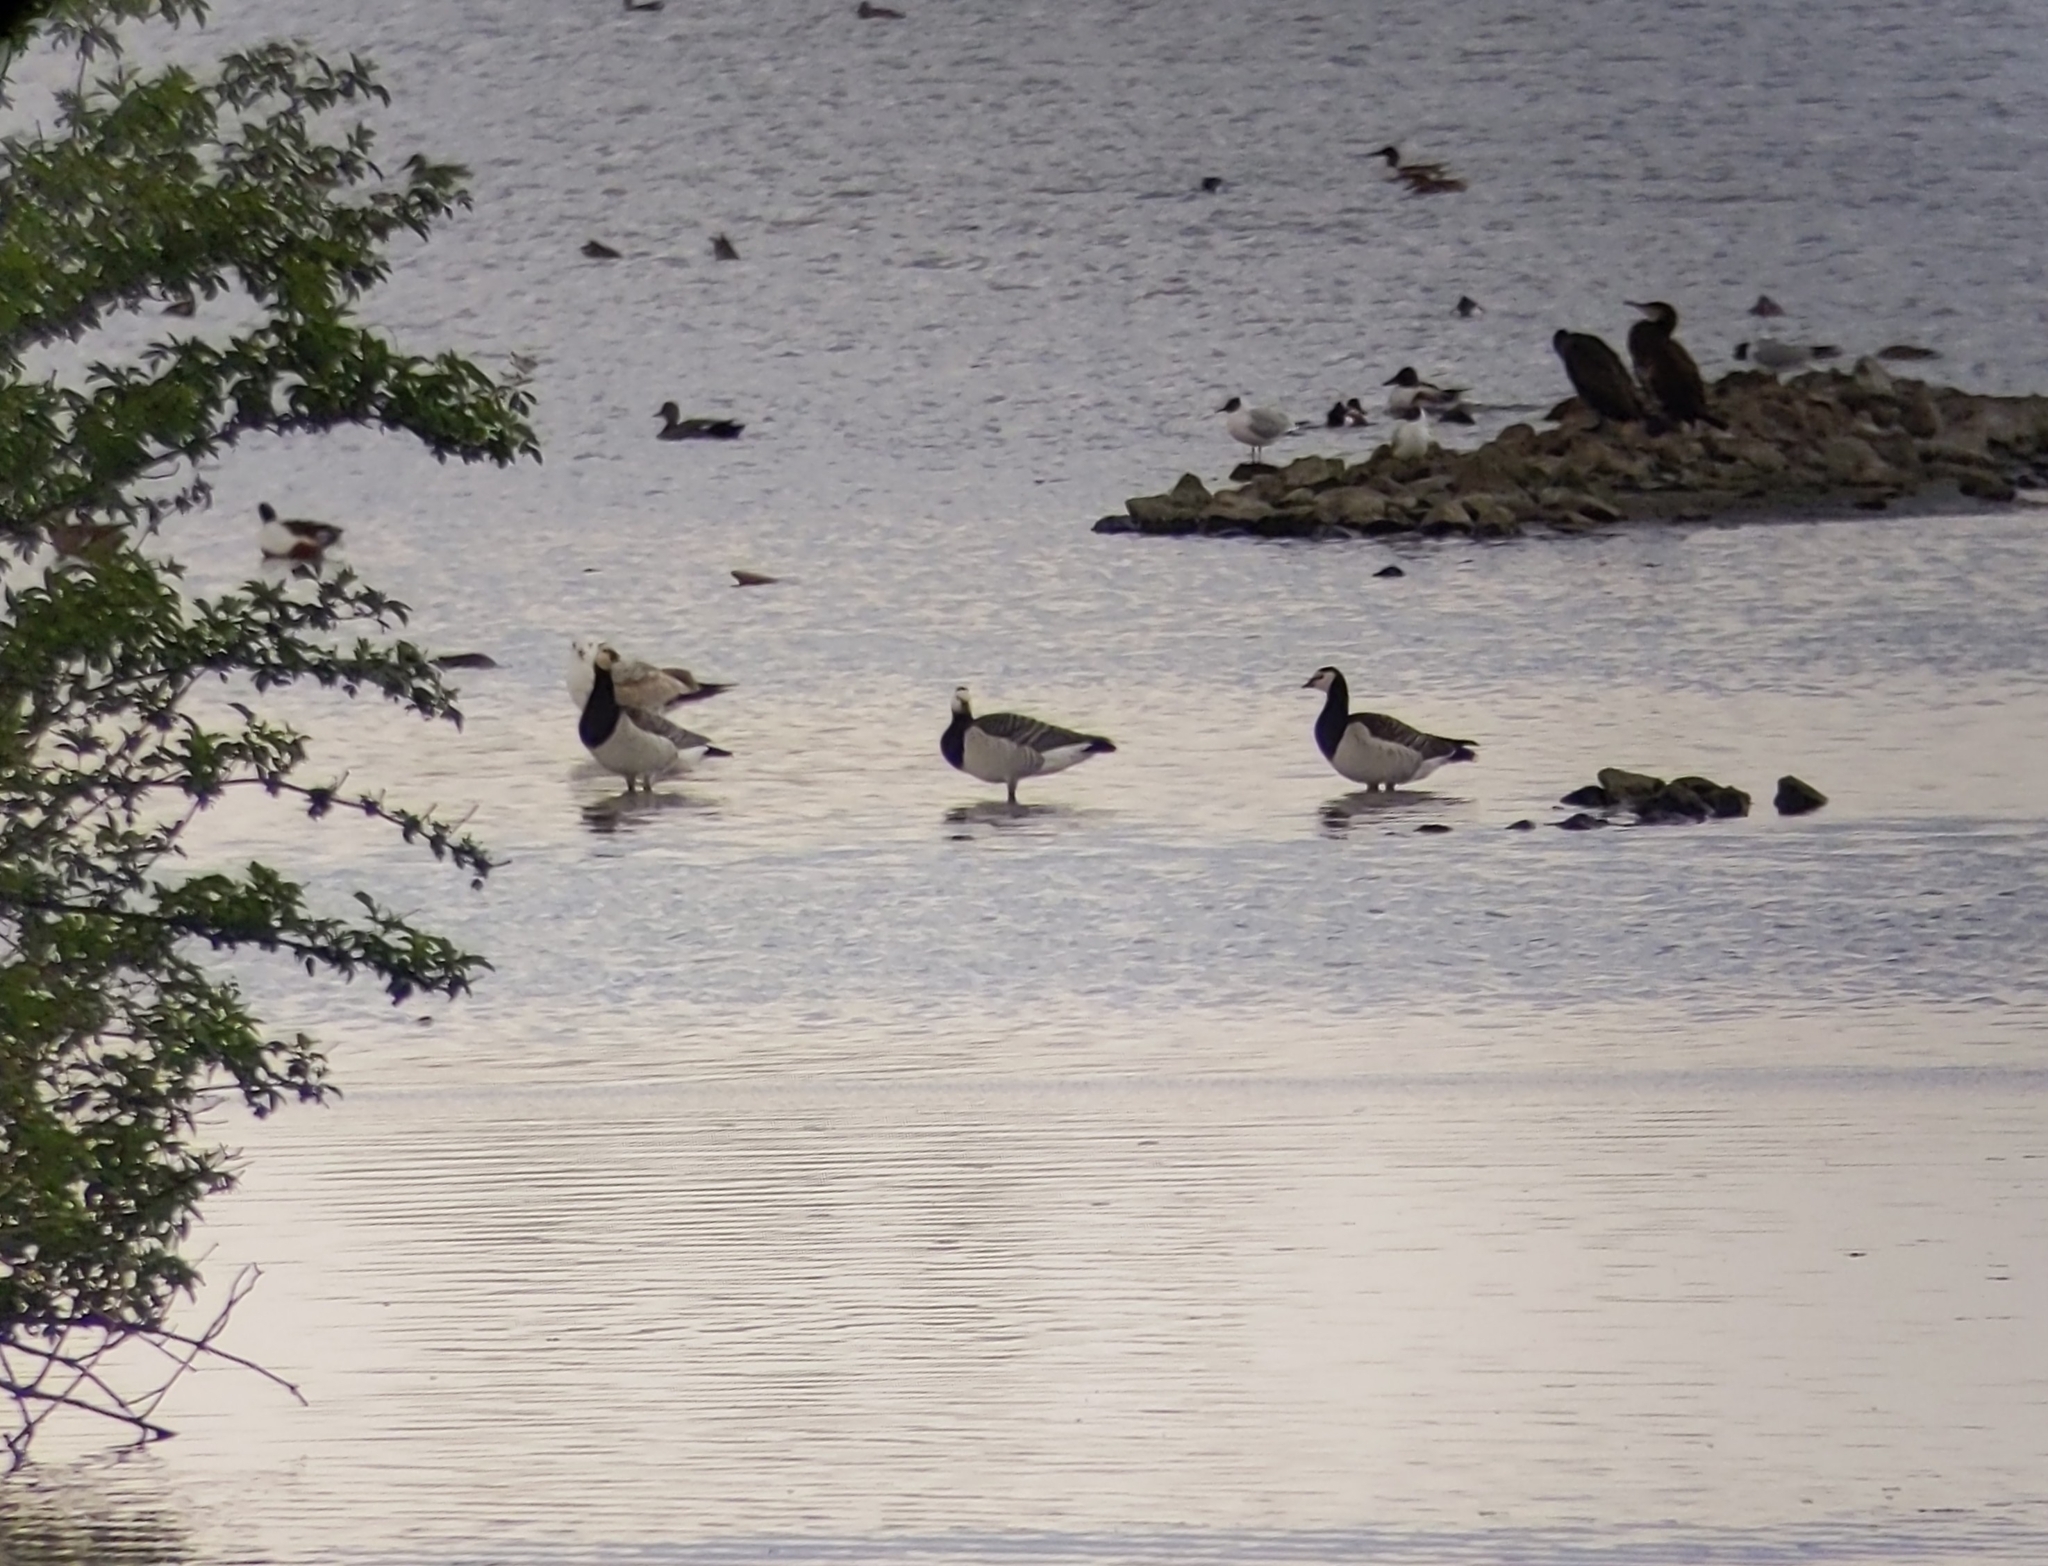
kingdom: Animalia
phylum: Chordata
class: Aves
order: Anseriformes
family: Anatidae
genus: Branta
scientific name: Branta leucopsis
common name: Barnacle goose
